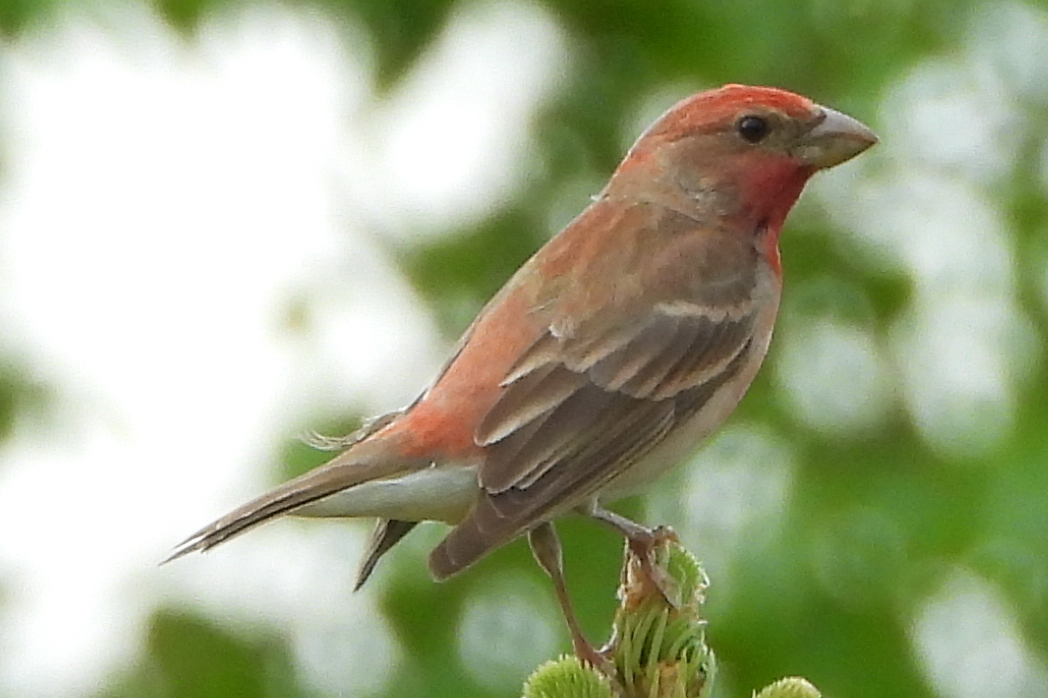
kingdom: Animalia
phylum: Chordata
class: Aves
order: Passeriformes
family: Fringillidae
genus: Carpodacus
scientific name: Carpodacus erythrinus
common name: Common rosefinch
